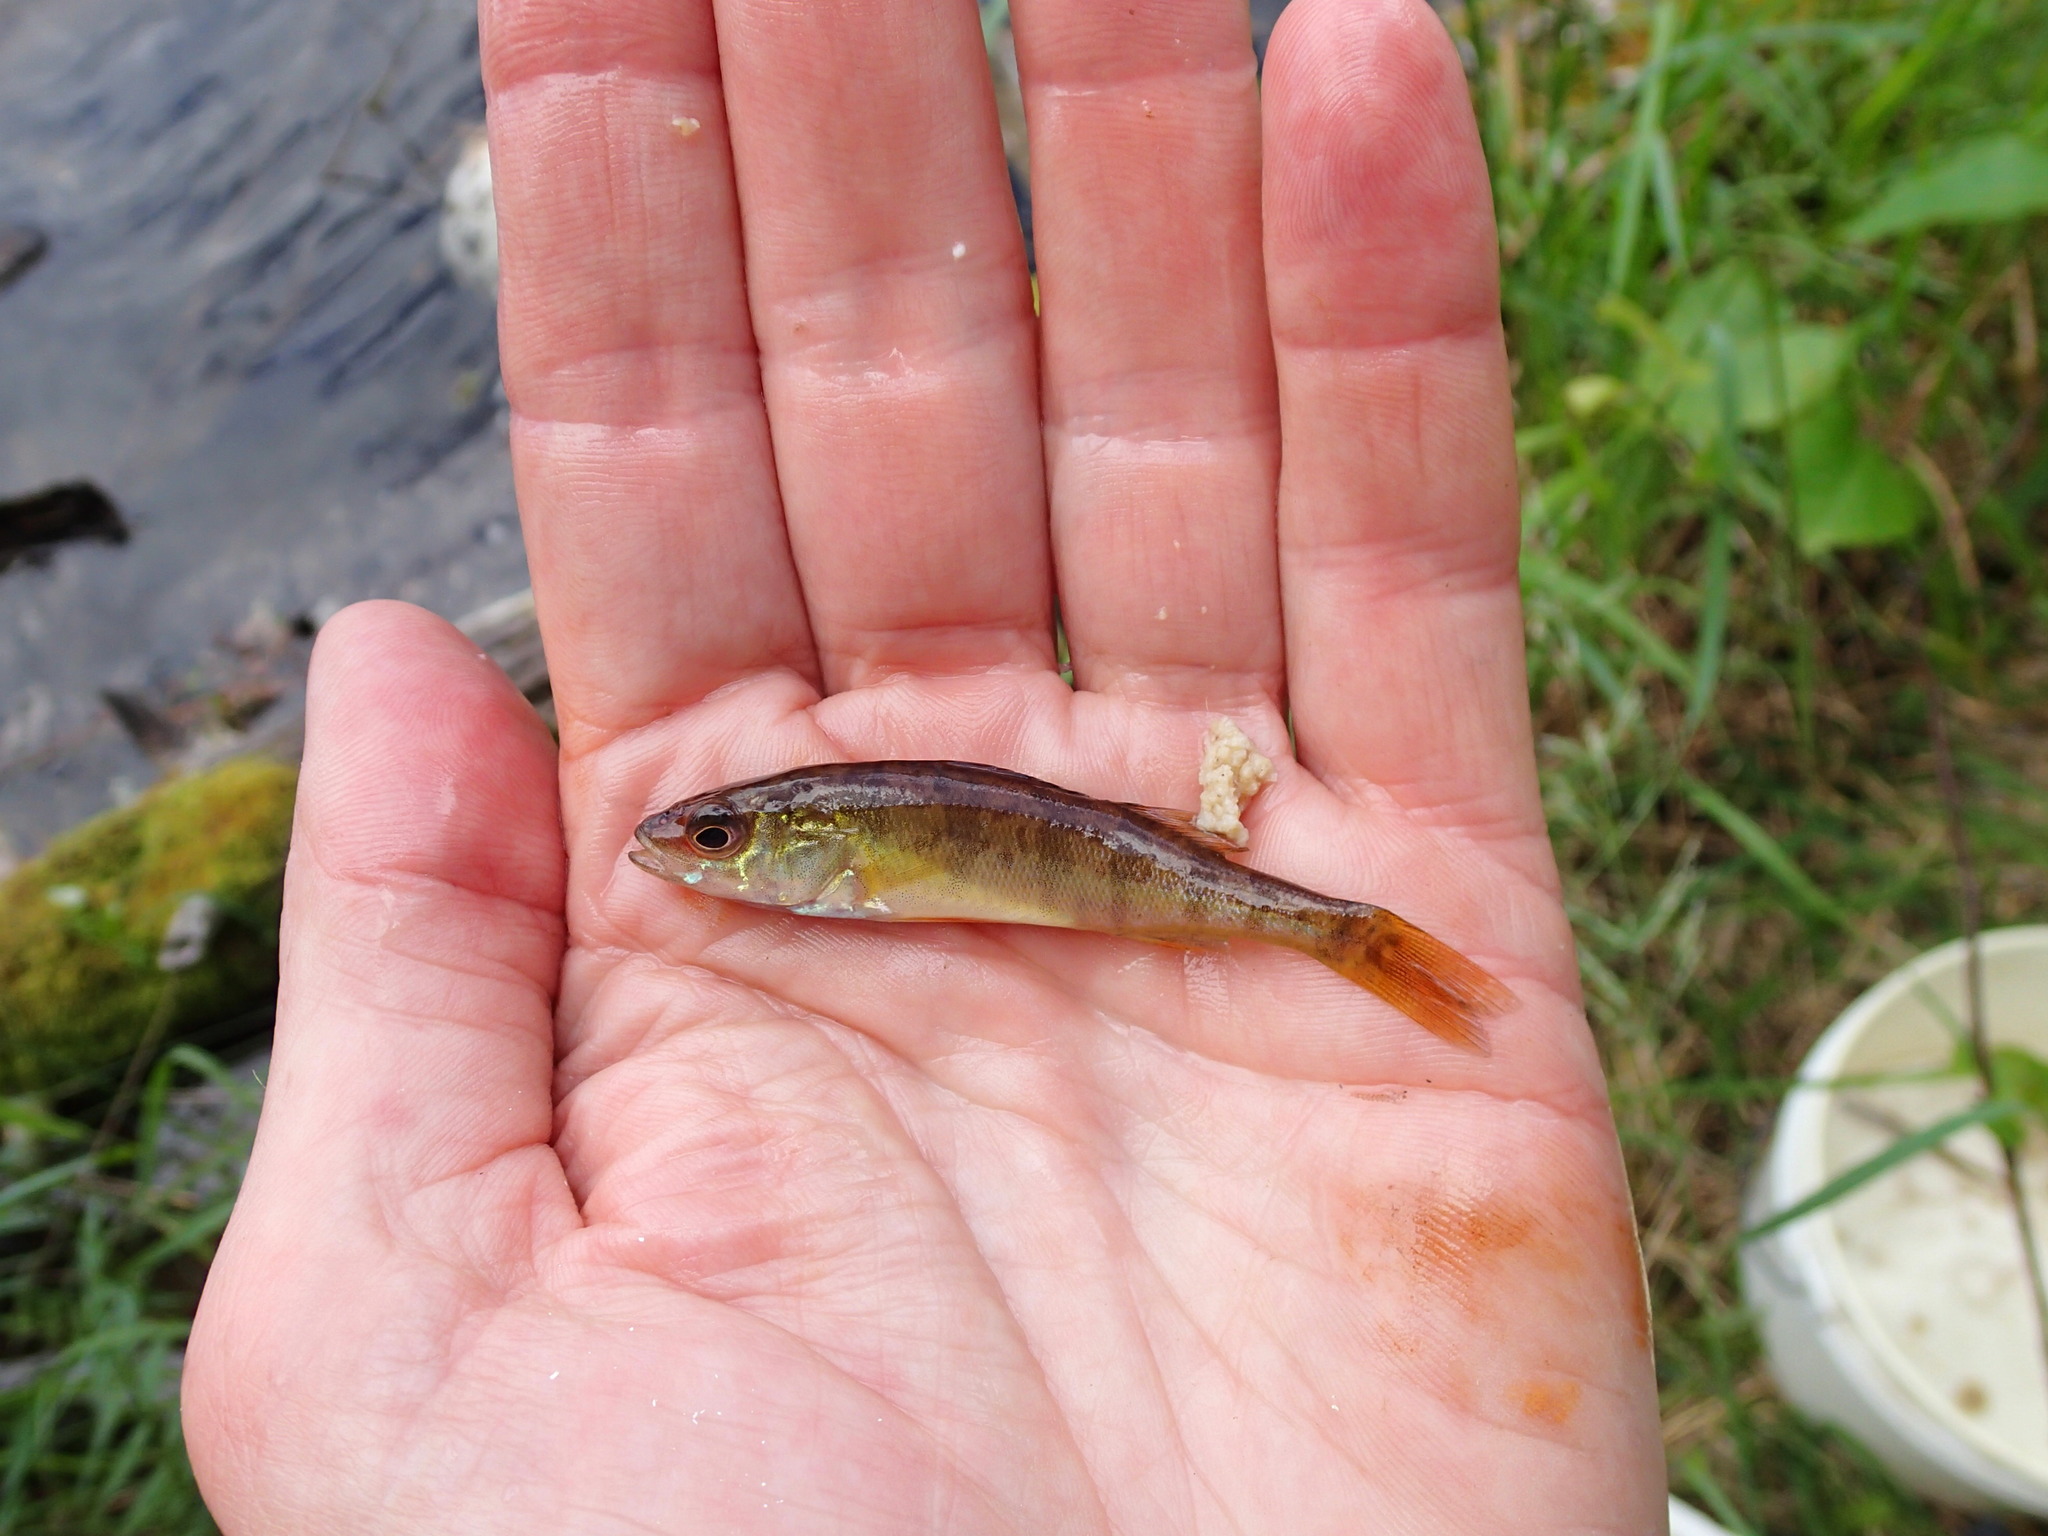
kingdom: Animalia
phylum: Chordata
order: Perciformes
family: Percidae
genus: Perca
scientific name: Perca flavescens
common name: Yellow perch
